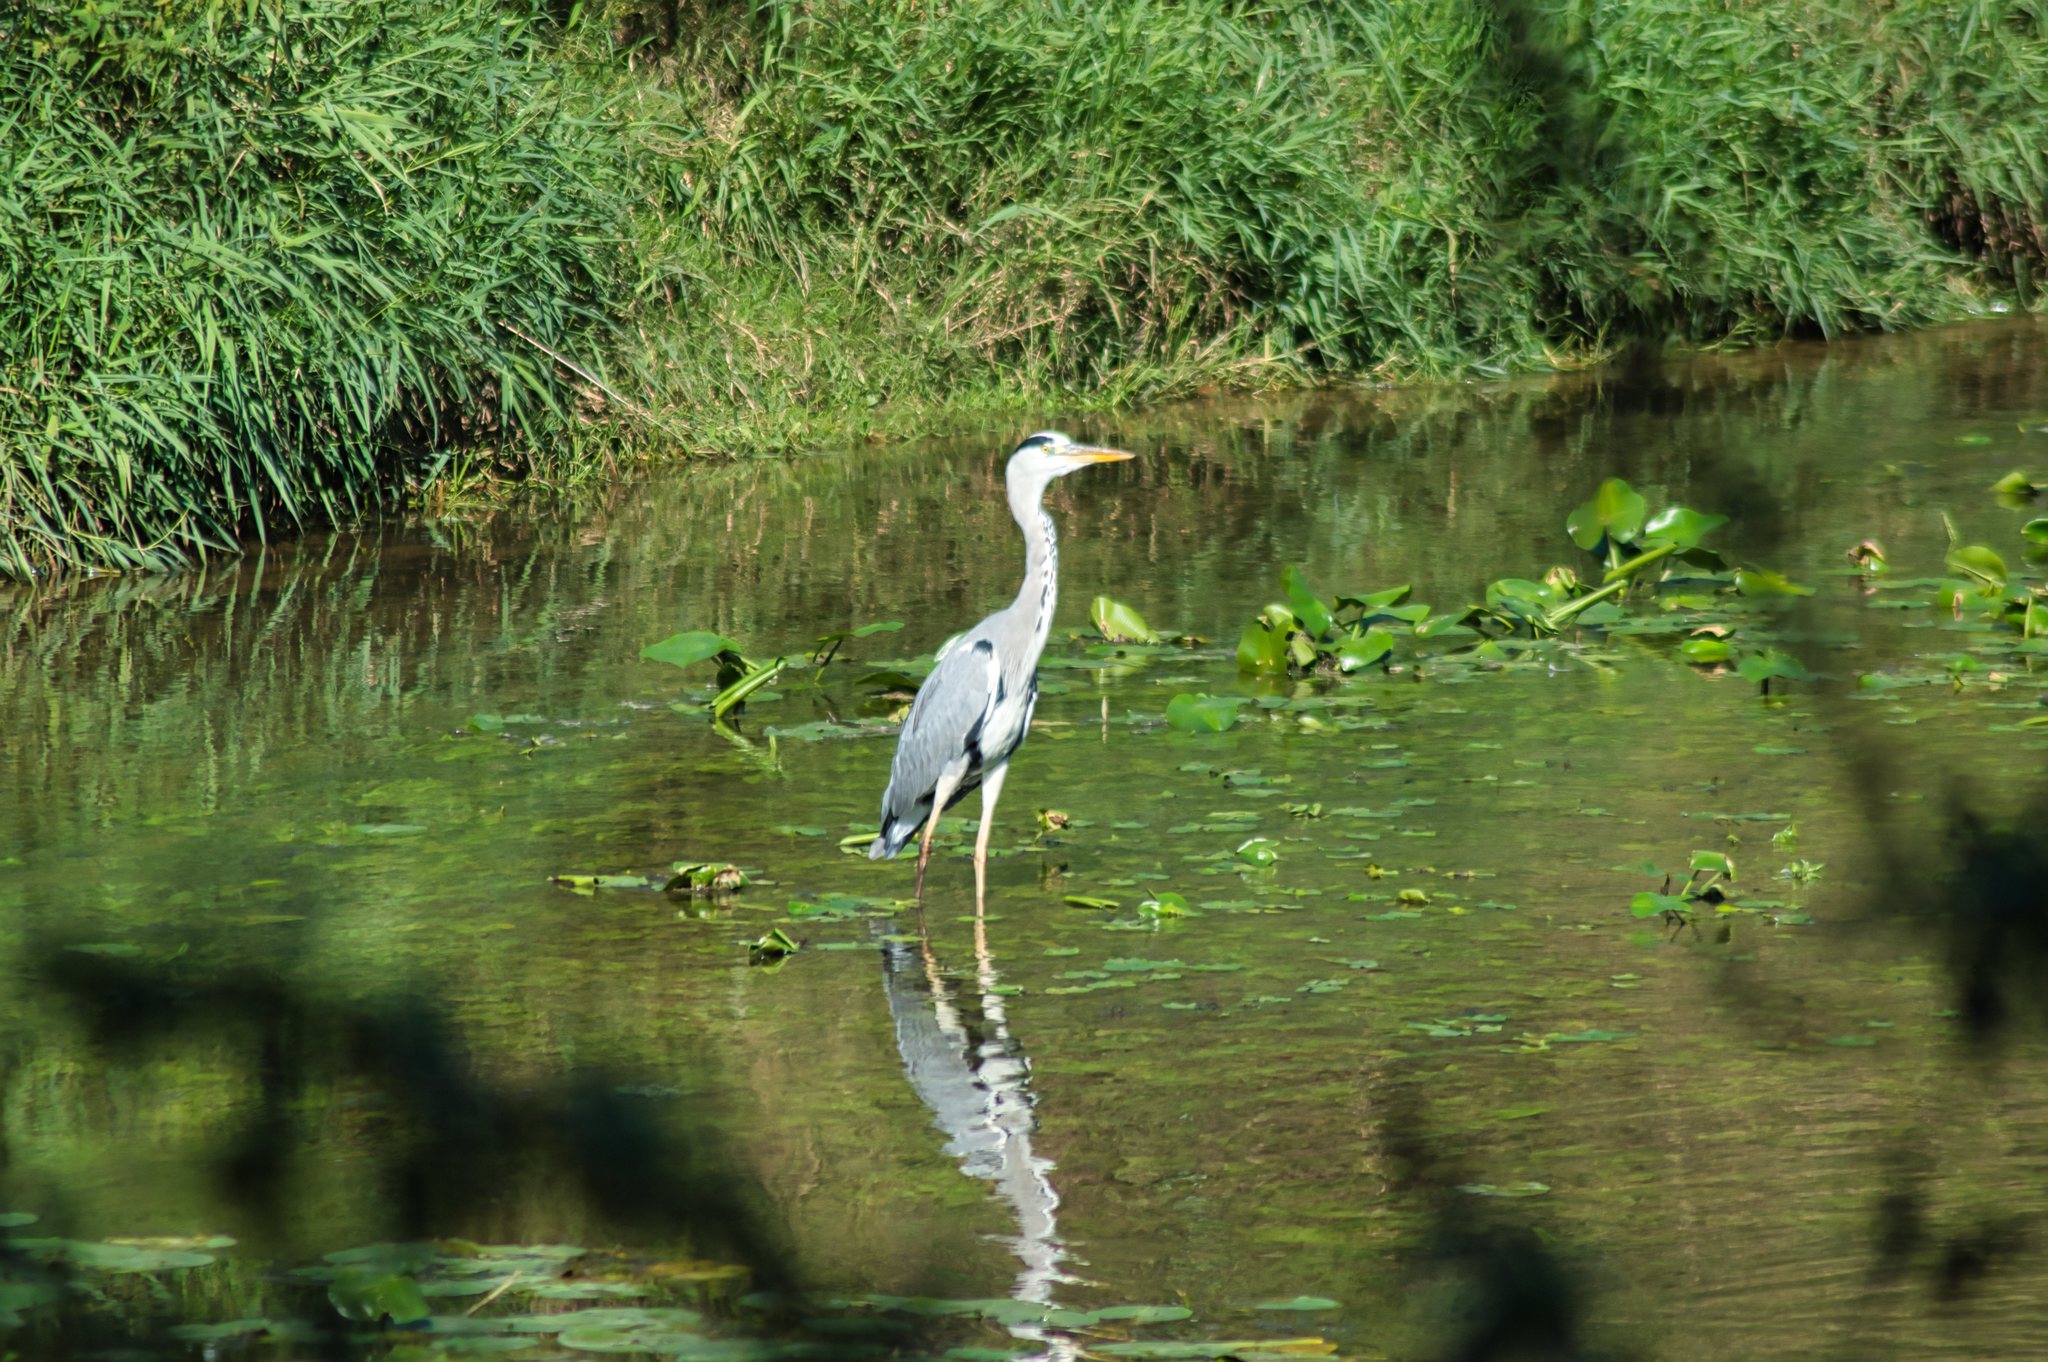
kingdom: Animalia
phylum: Chordata
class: Aves
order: Pelecaniformes
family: Ardeidae
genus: Ardea
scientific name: Ardea cinerea
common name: Grey heron
